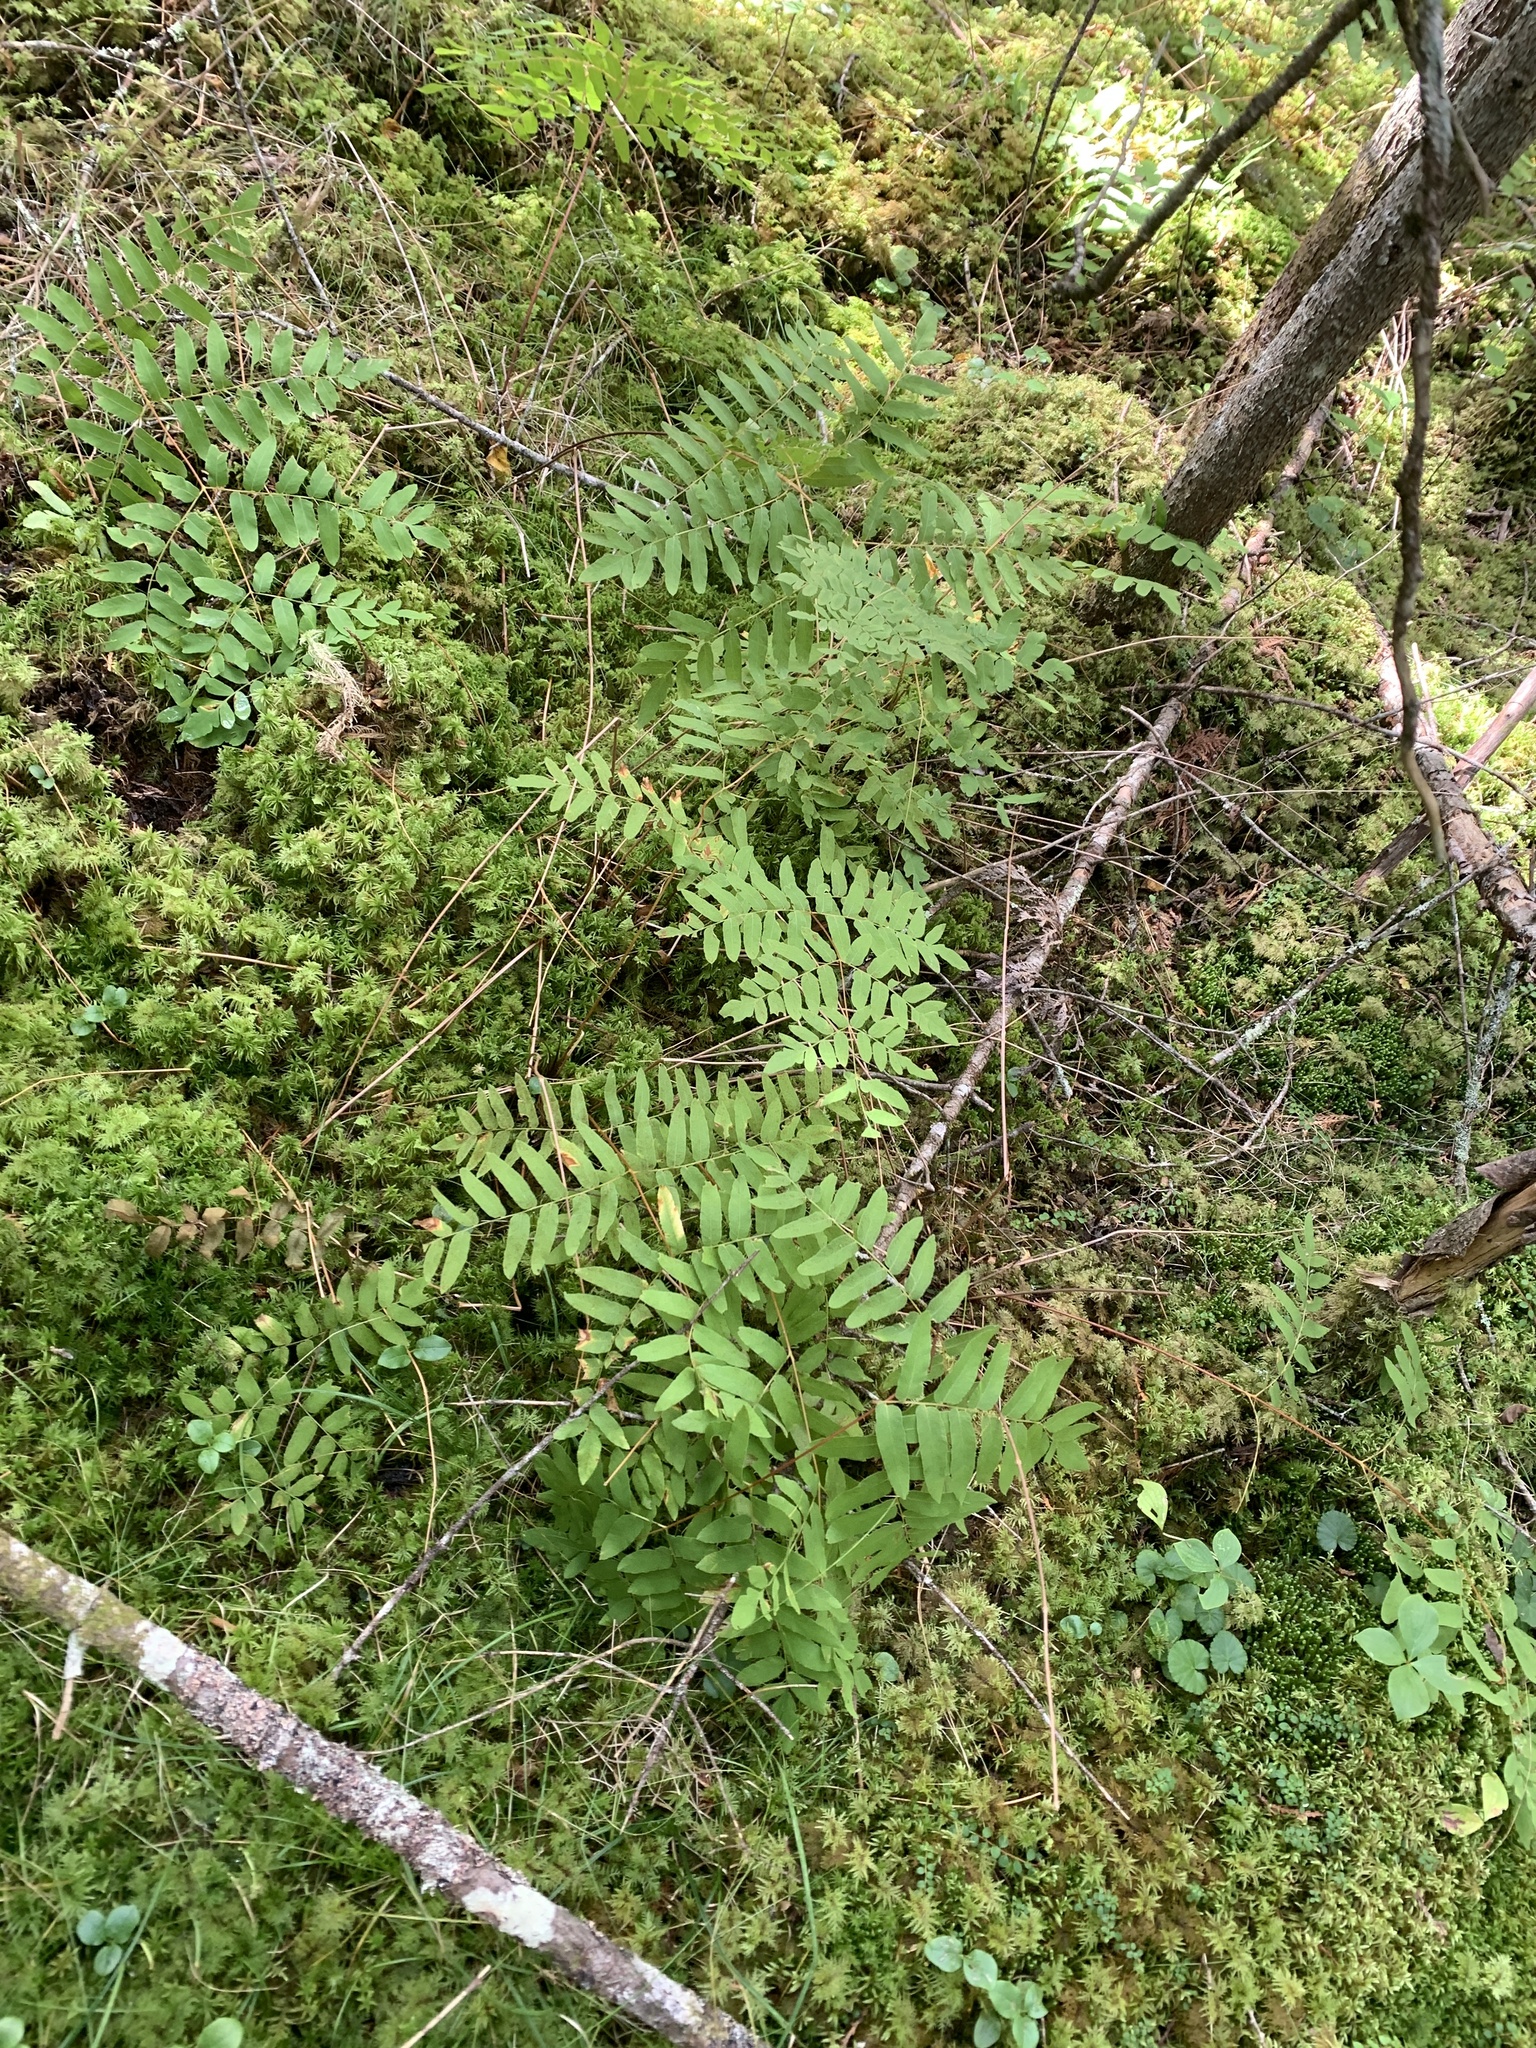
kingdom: Plantae
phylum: Tracheophyta
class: Polypodiopsida
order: Osmundales
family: Osmundaceae
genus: Osmunda
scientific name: Osmunda spectabilis
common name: American royal fern
